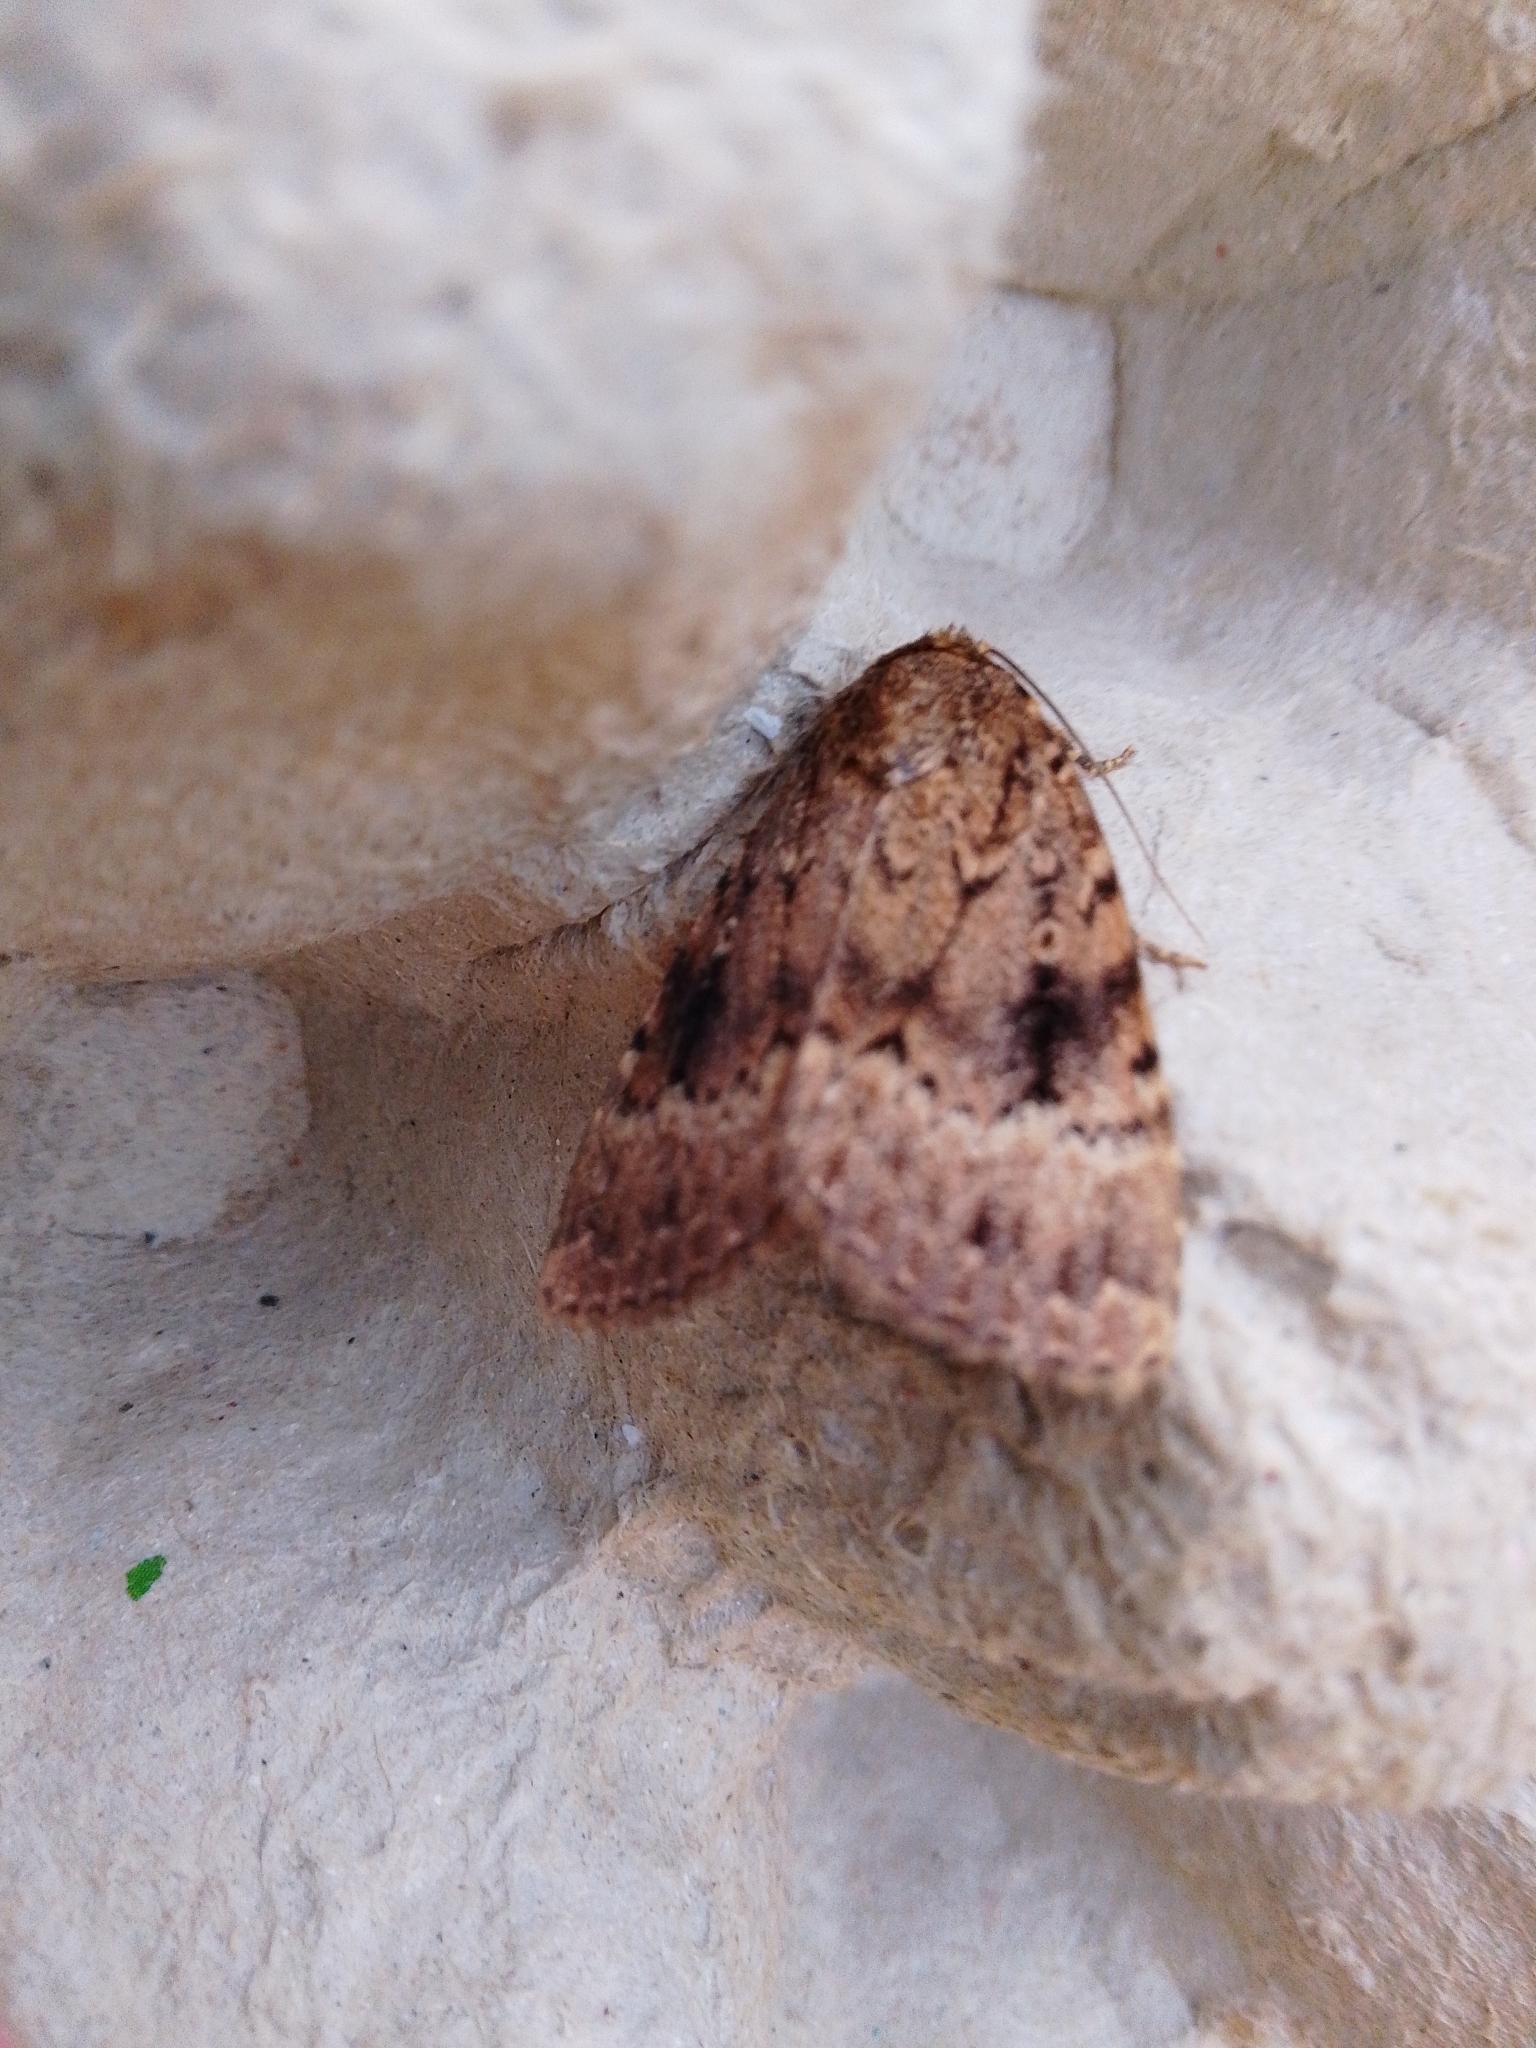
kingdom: Animalia
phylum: Arthropoda
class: Insecta
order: Lepidoptera
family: Noctuidae
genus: Amphipyra
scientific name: Amphipyra
